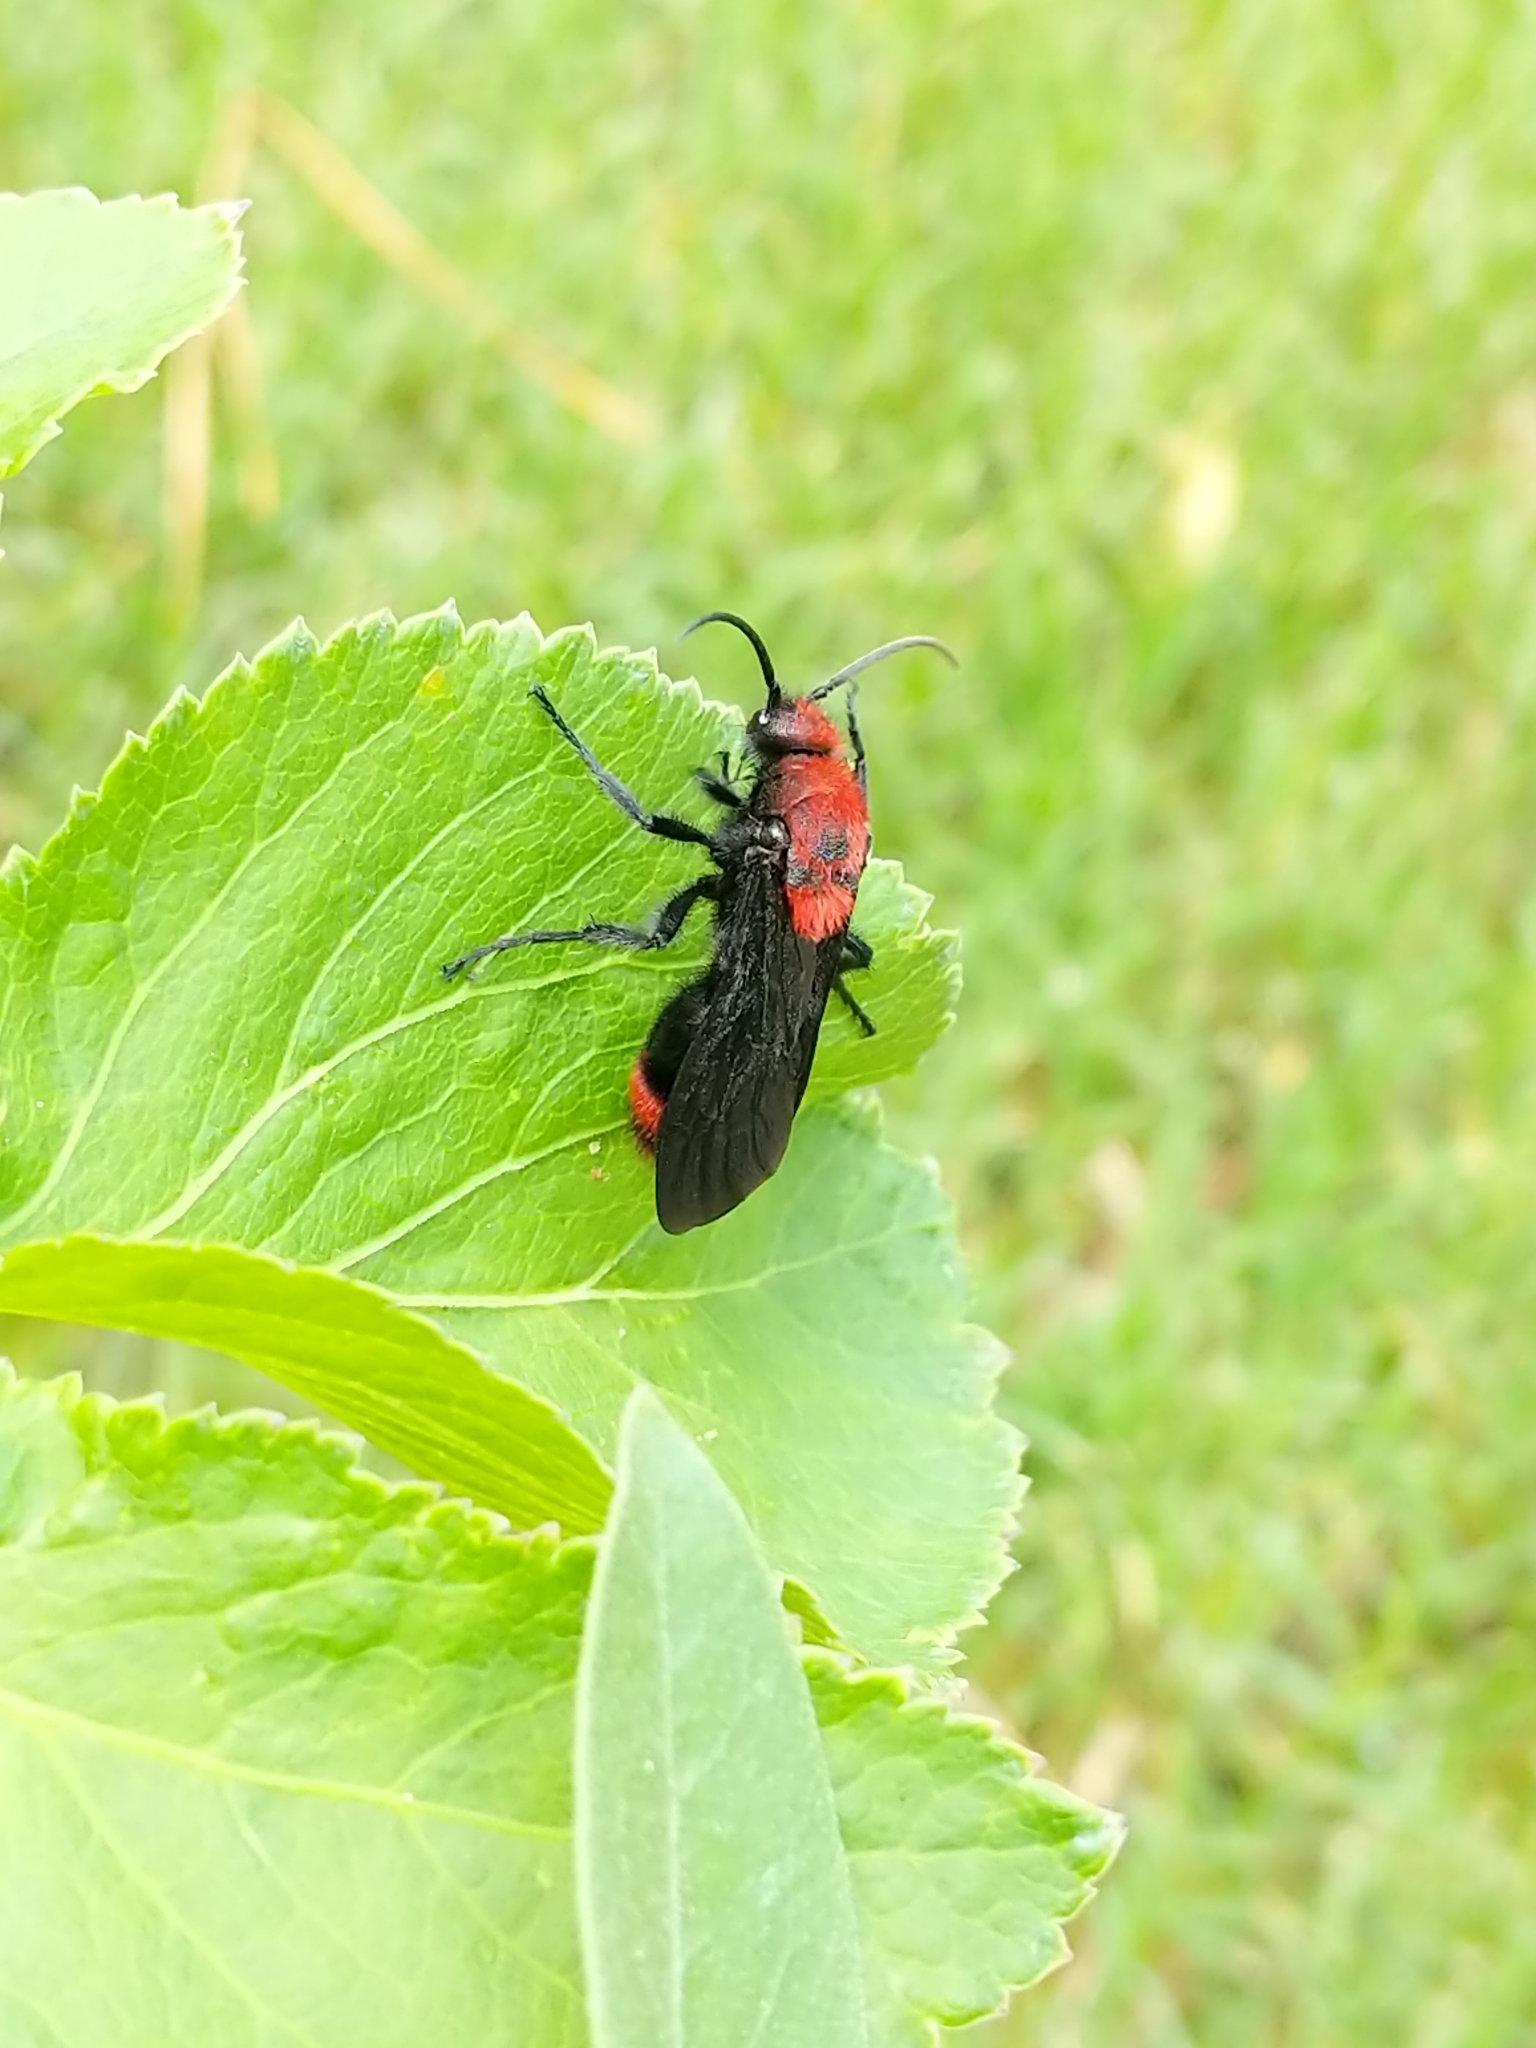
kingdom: Animalia
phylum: Arthropoda
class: Insecta
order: Hymenoptera
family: Mutillidae
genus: Dasymutilla
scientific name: Dasymutilla occidentalis
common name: Common eastern velvet ant
